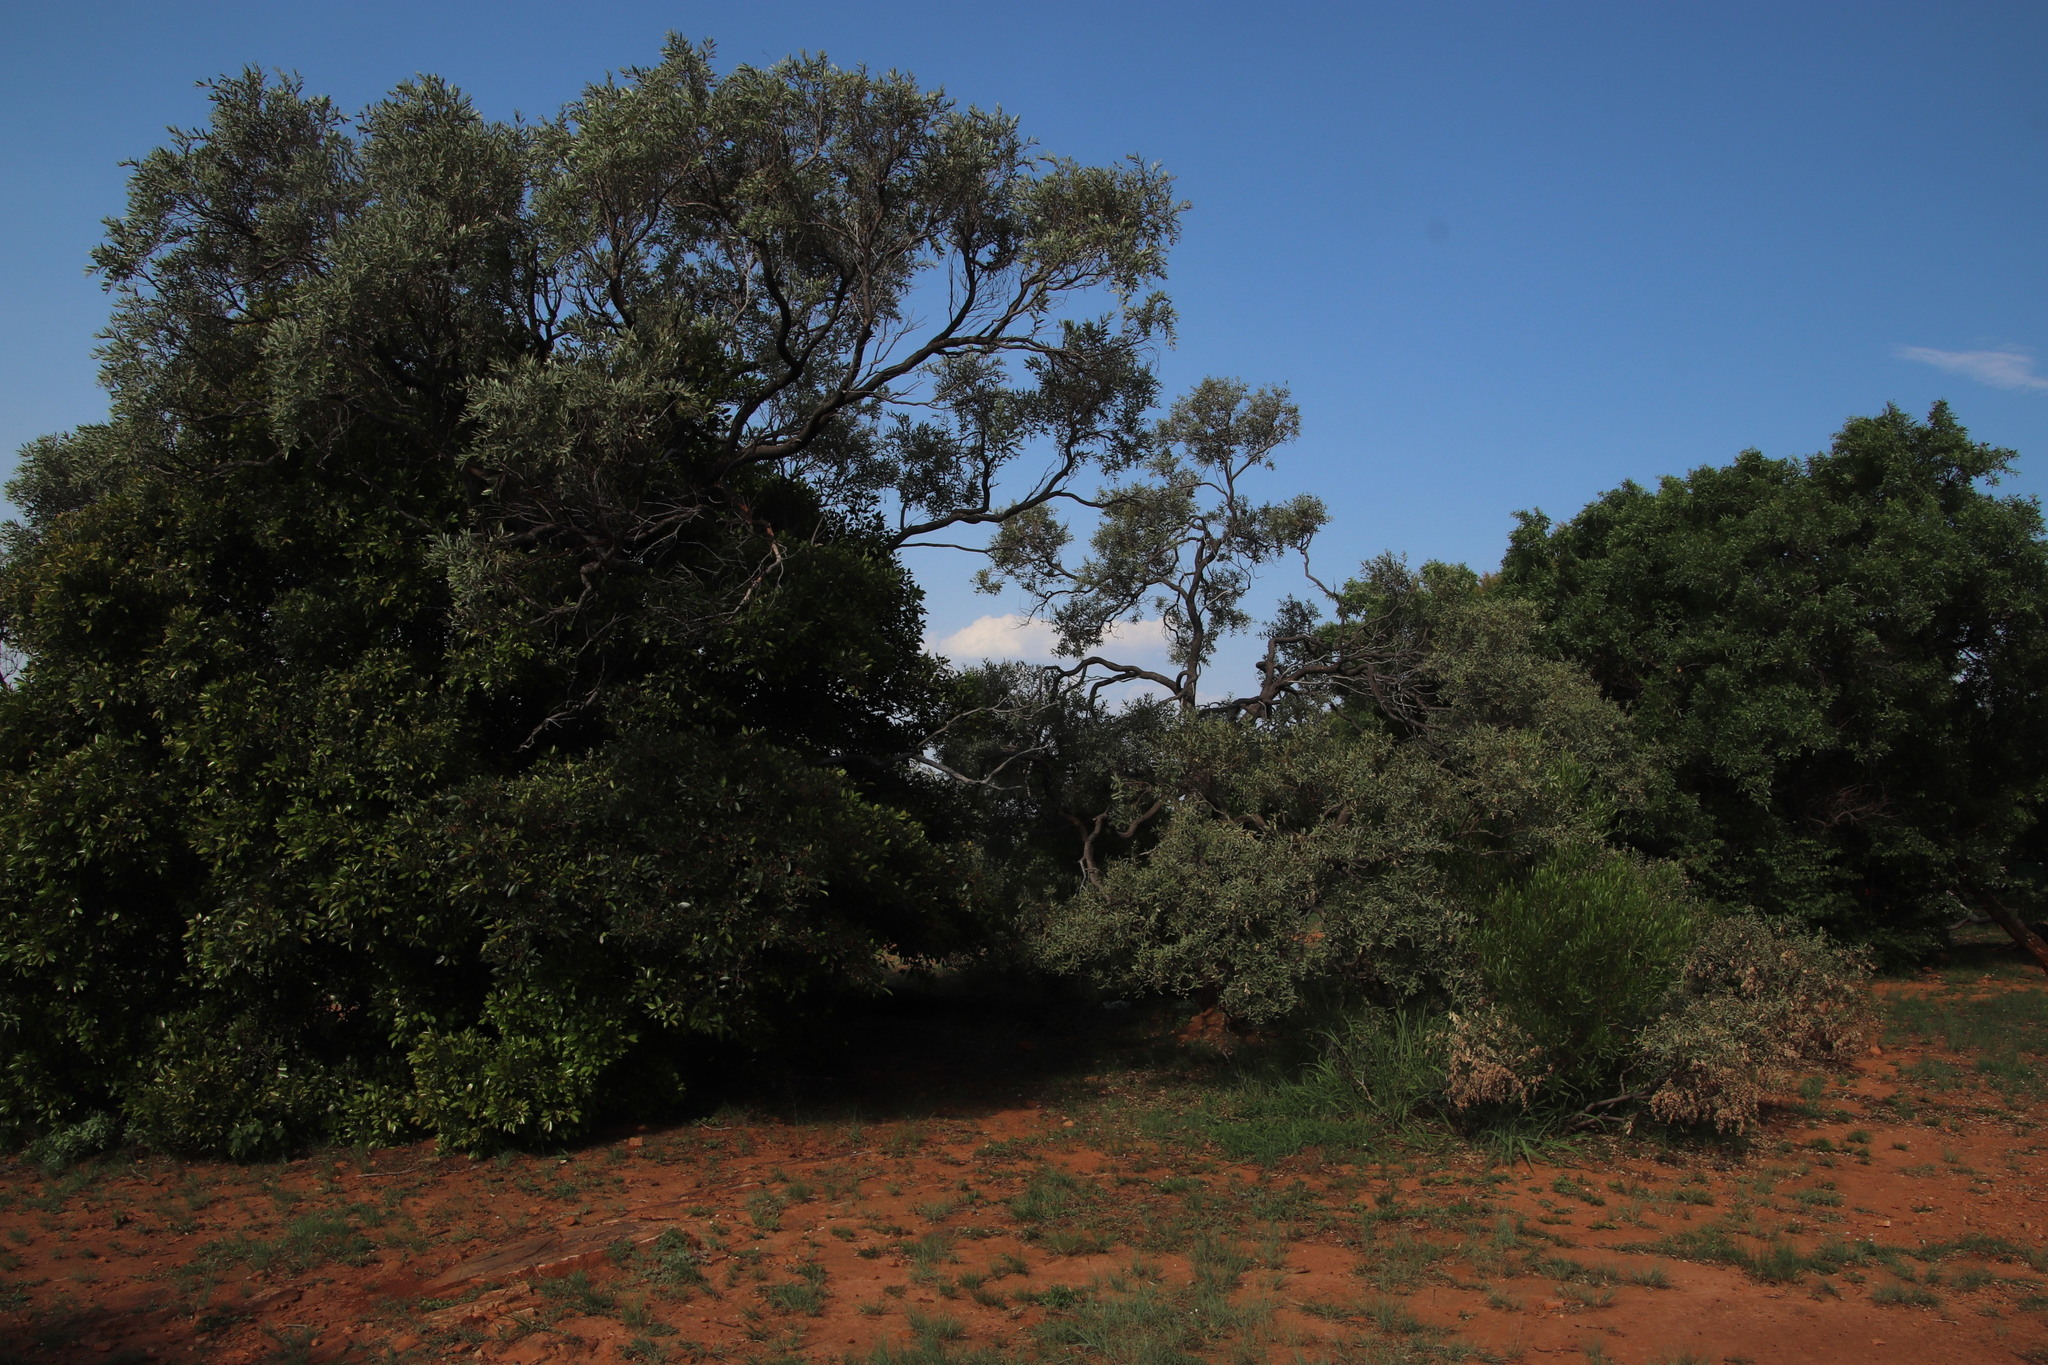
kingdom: Plantae
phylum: Tracheophyta
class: Magnoliopsida
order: Sapindales
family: Anacardiaceae
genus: Ozoroa
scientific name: Ozoroa paniculosa
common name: Bushveld ozoroa
